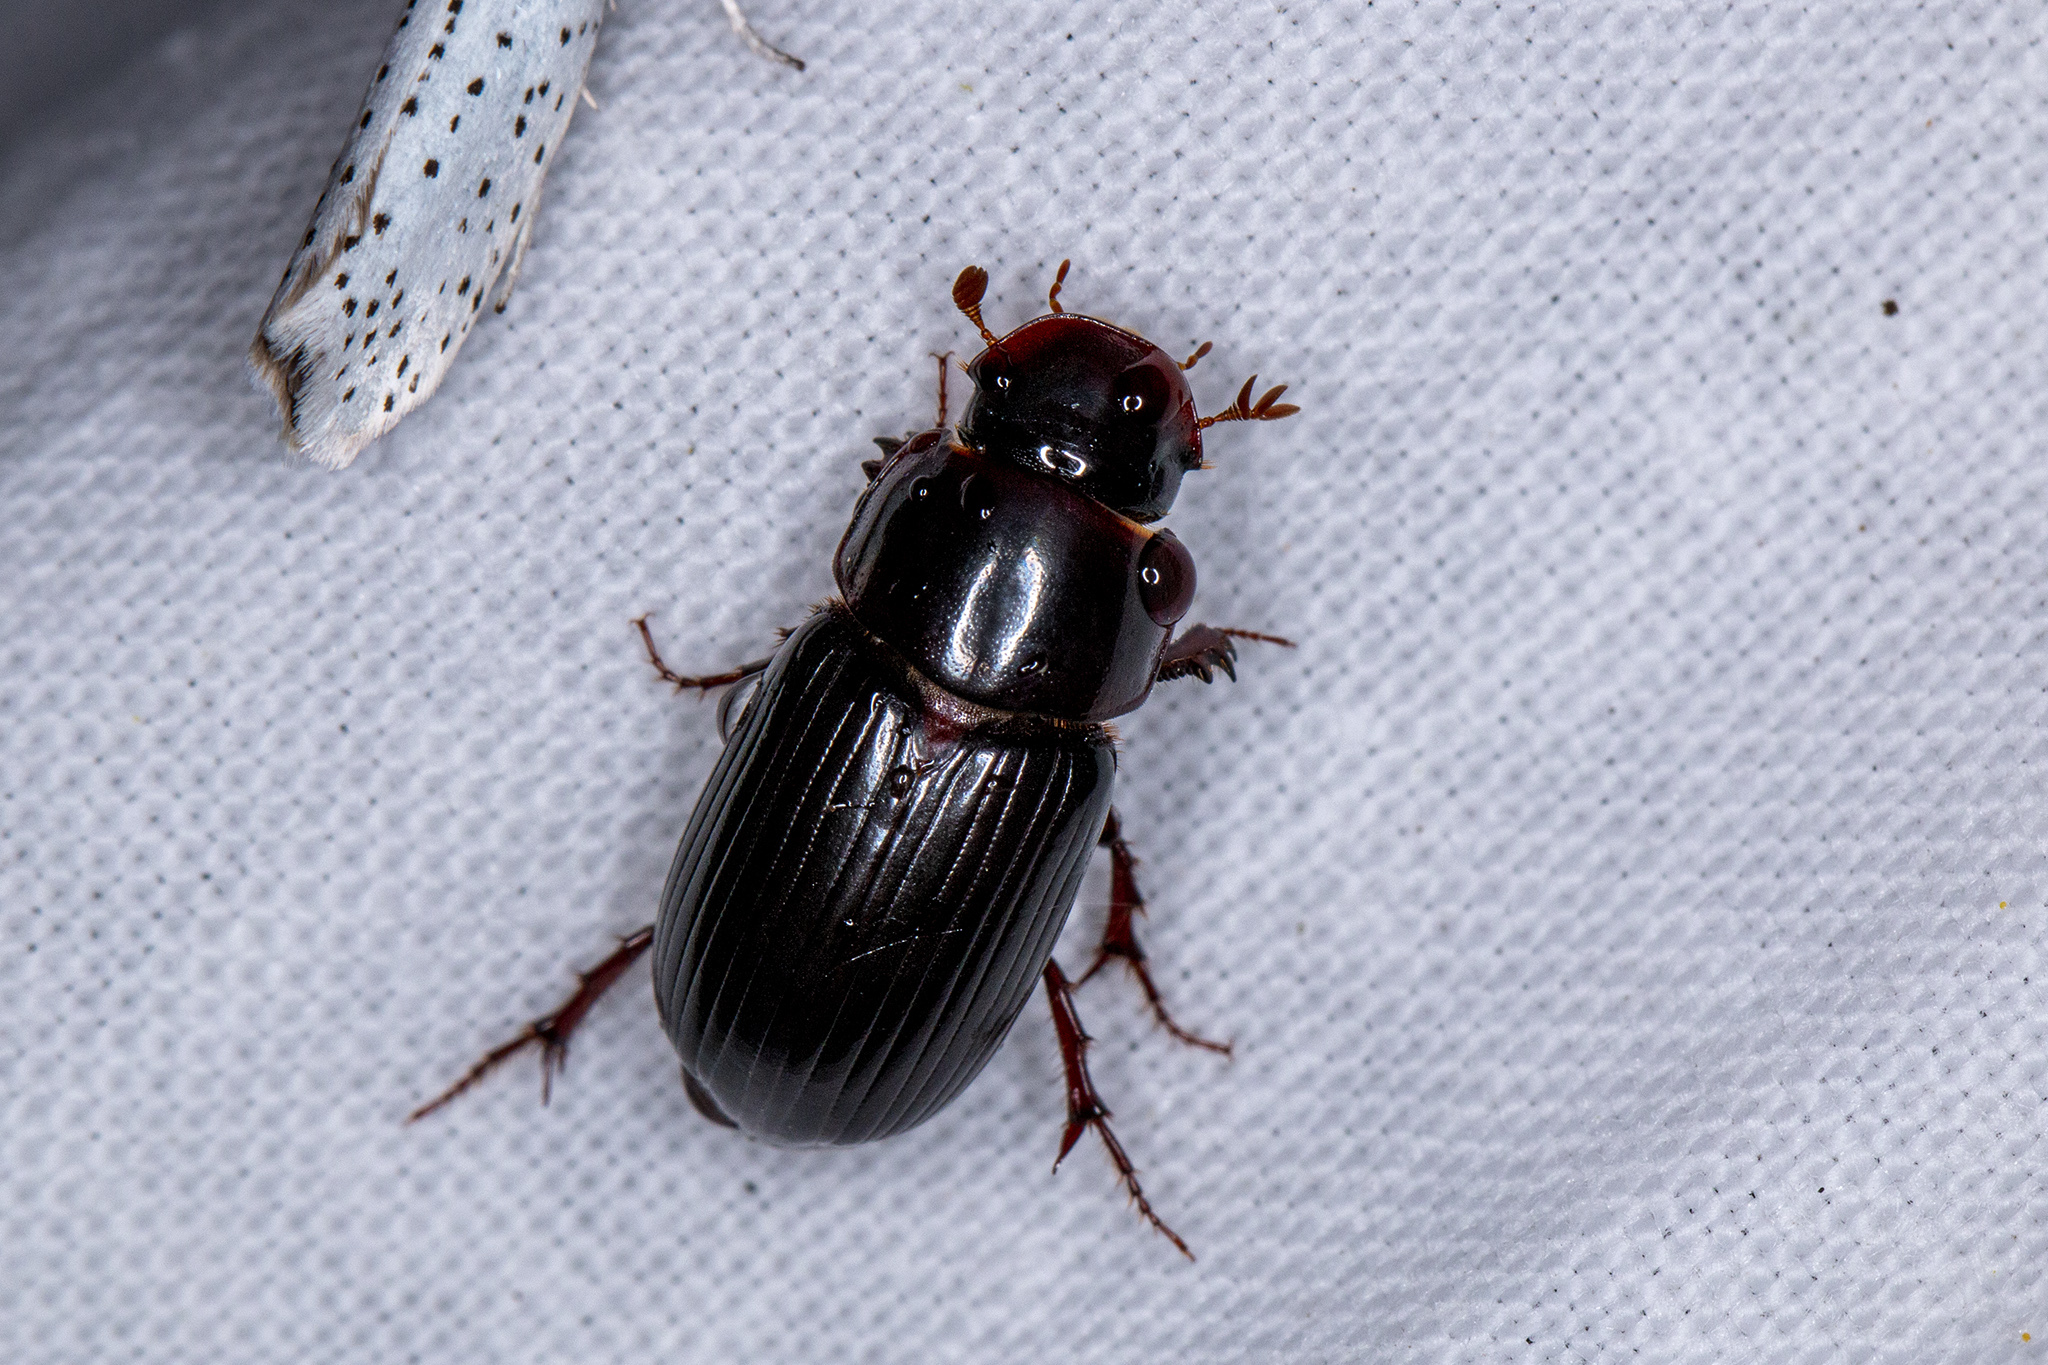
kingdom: Animalia
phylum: Arthropoda
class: Insecta
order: Coleoptera
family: Scarabaeidae
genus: Acrossus
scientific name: Acrossus rufipes
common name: Night-flying dung beetle
